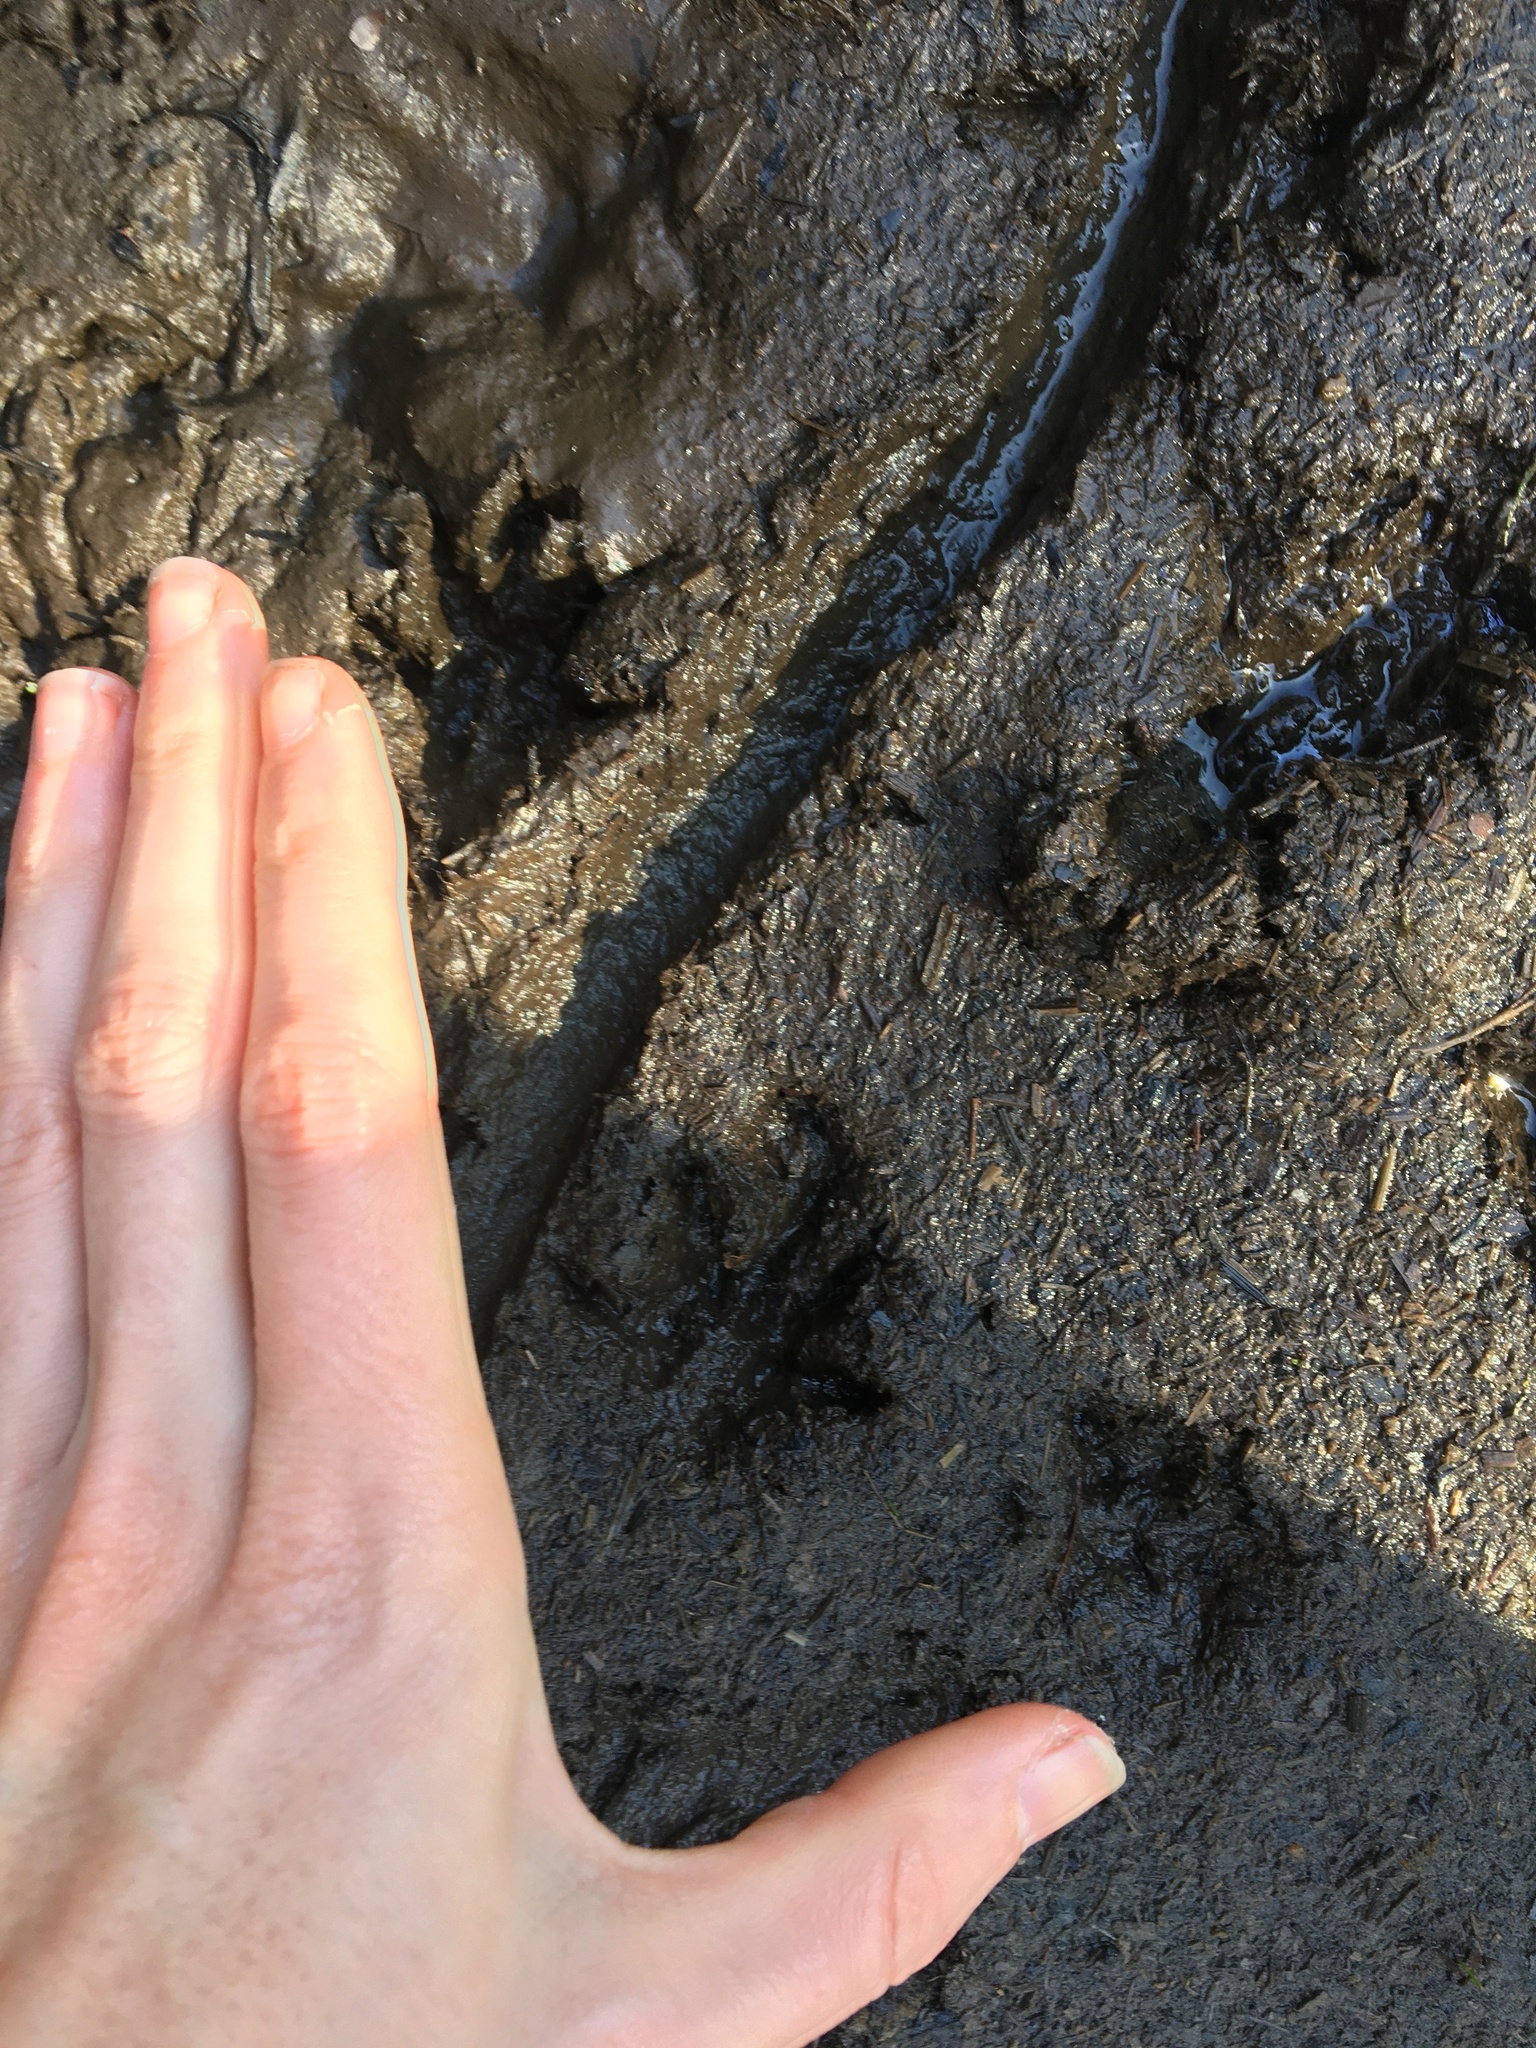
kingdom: Animalia
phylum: Chordata
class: Mammalia
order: Rodentia
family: Cricetidae
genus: Ondatra
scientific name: Ondatra zibethicus
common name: Muskrat
